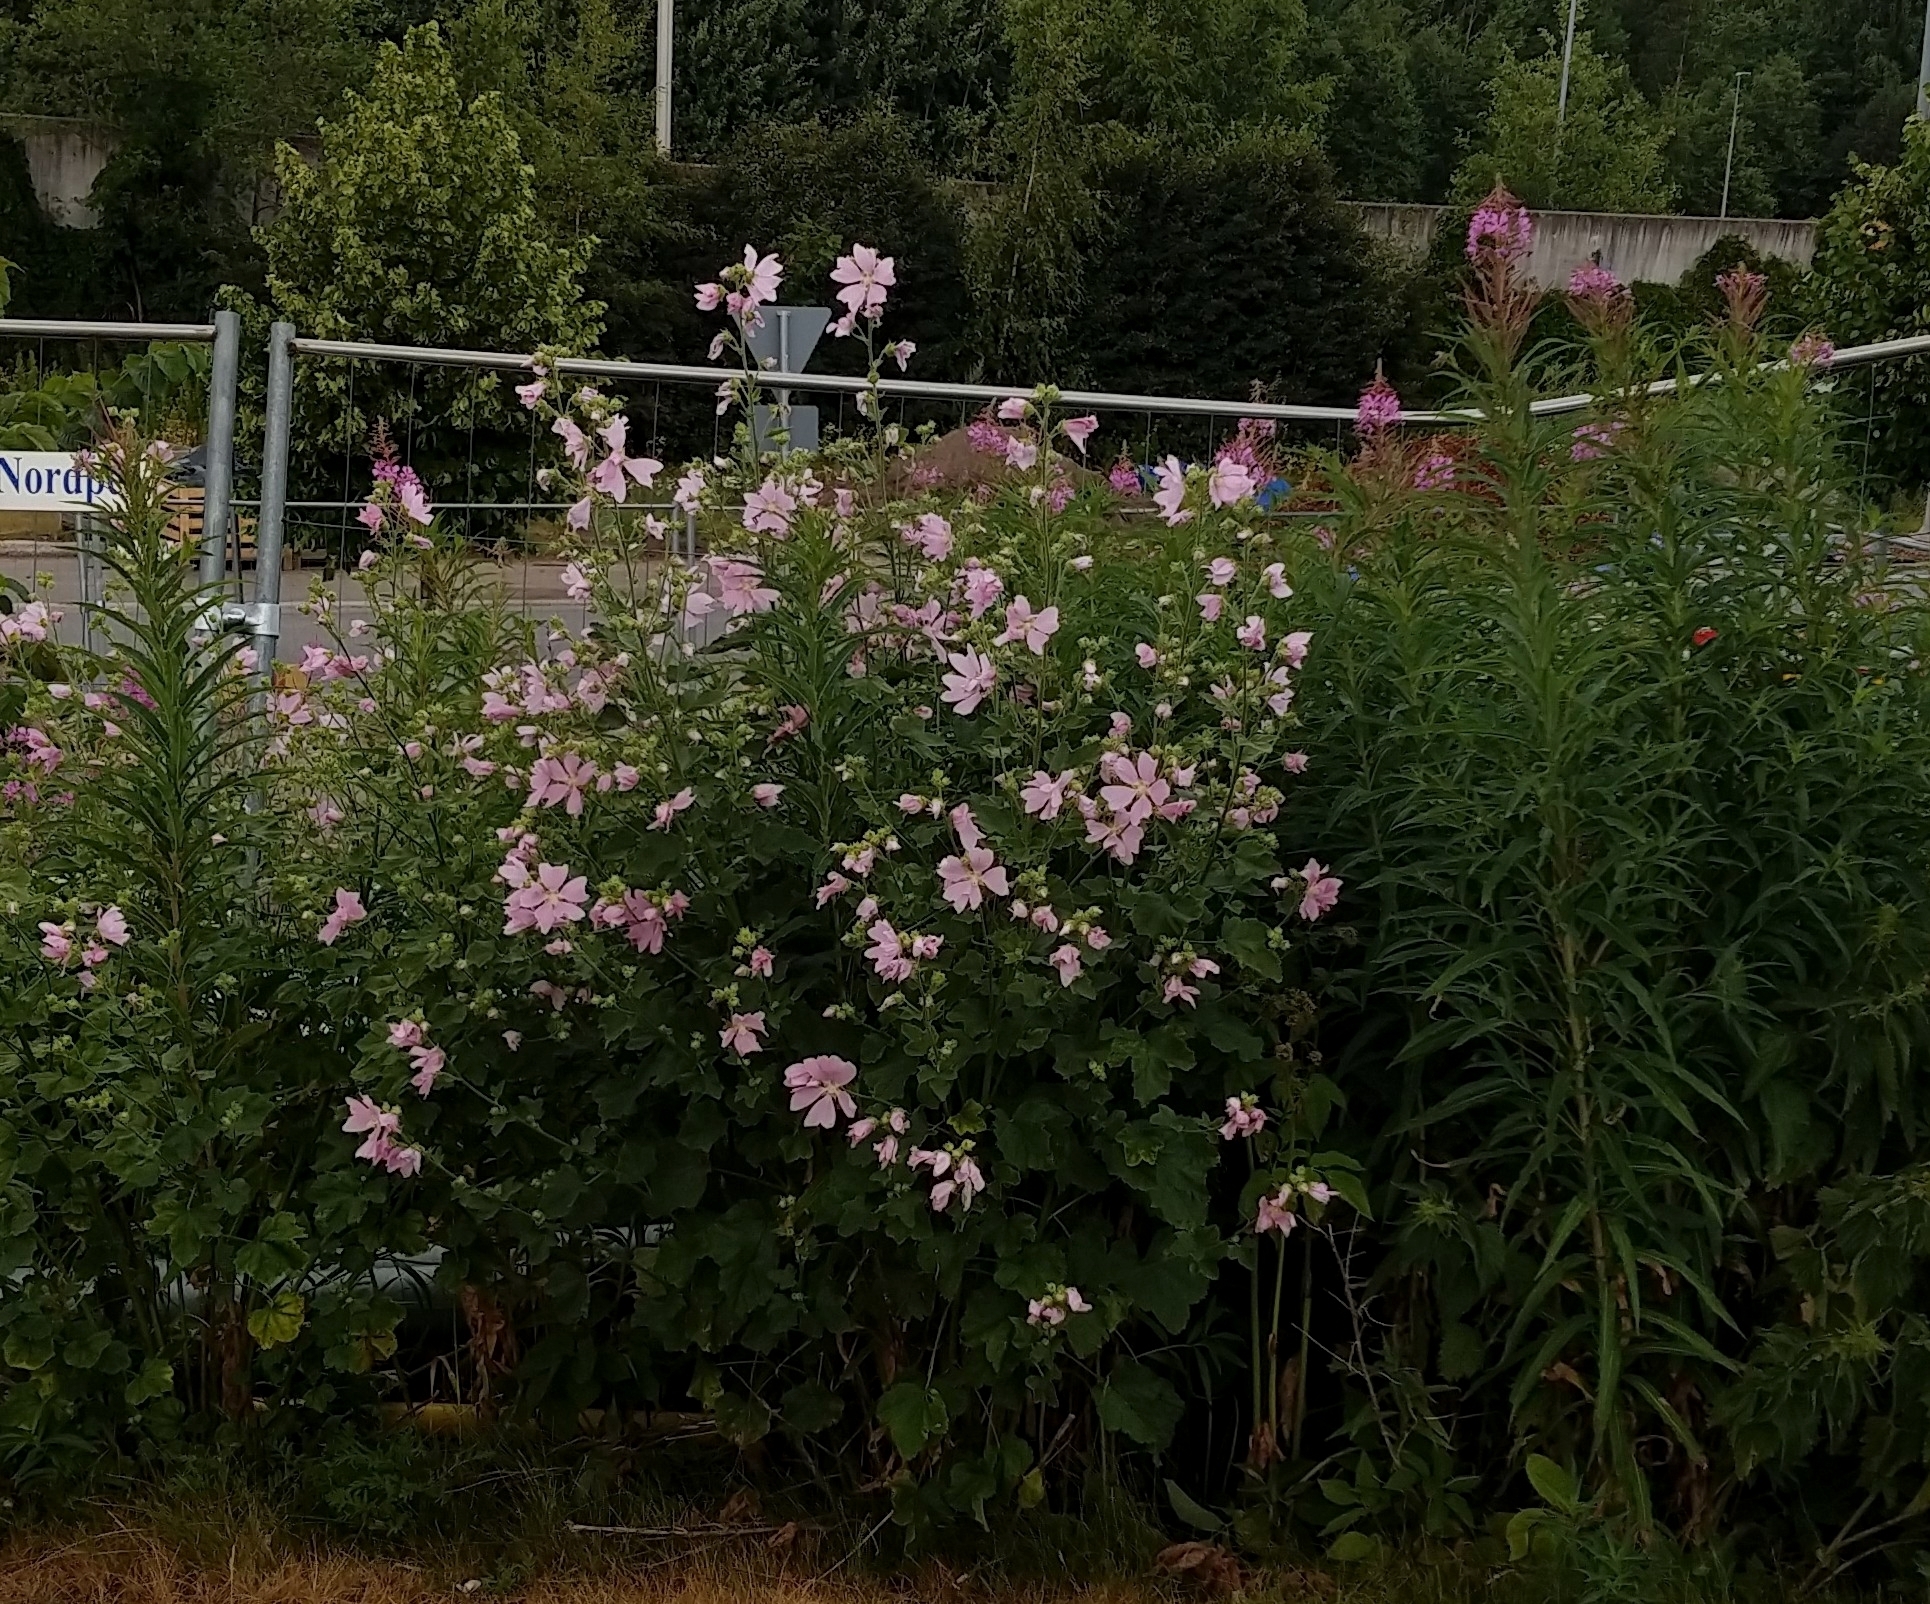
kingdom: Plantae
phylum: Tracheophyta
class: Magnoliopsida
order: Malvales
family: Malvaceae
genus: Malva
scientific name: Malva thuringiaca
